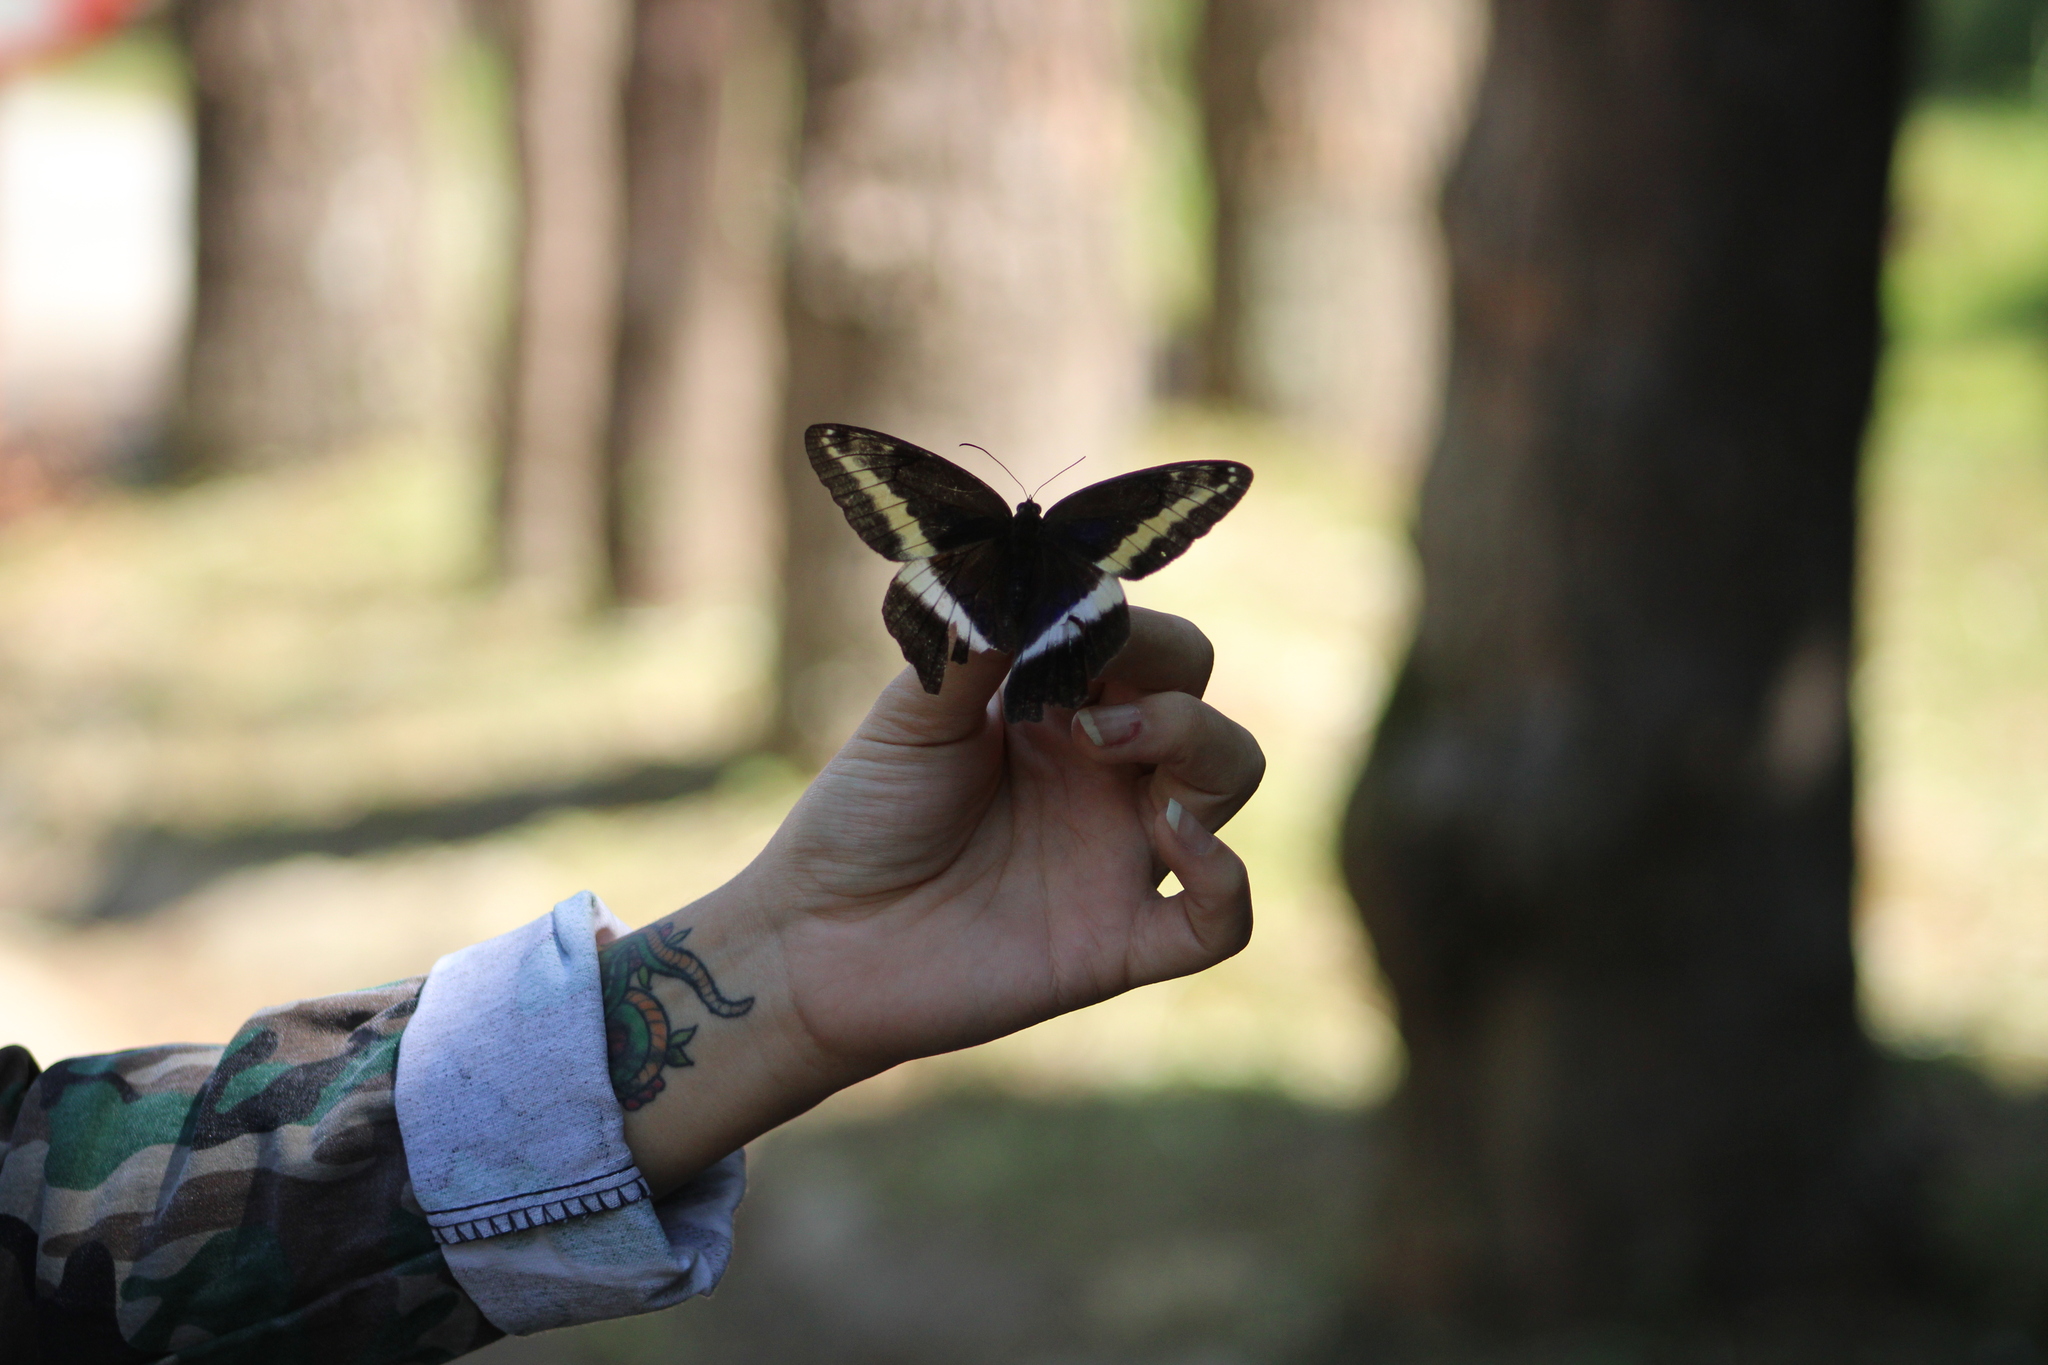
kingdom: Animalia
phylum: Arthropoda
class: Insecta
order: Lepidoptera
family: Nymphalidae
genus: Dasyophthalma
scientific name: Dasyophthalma rusina
